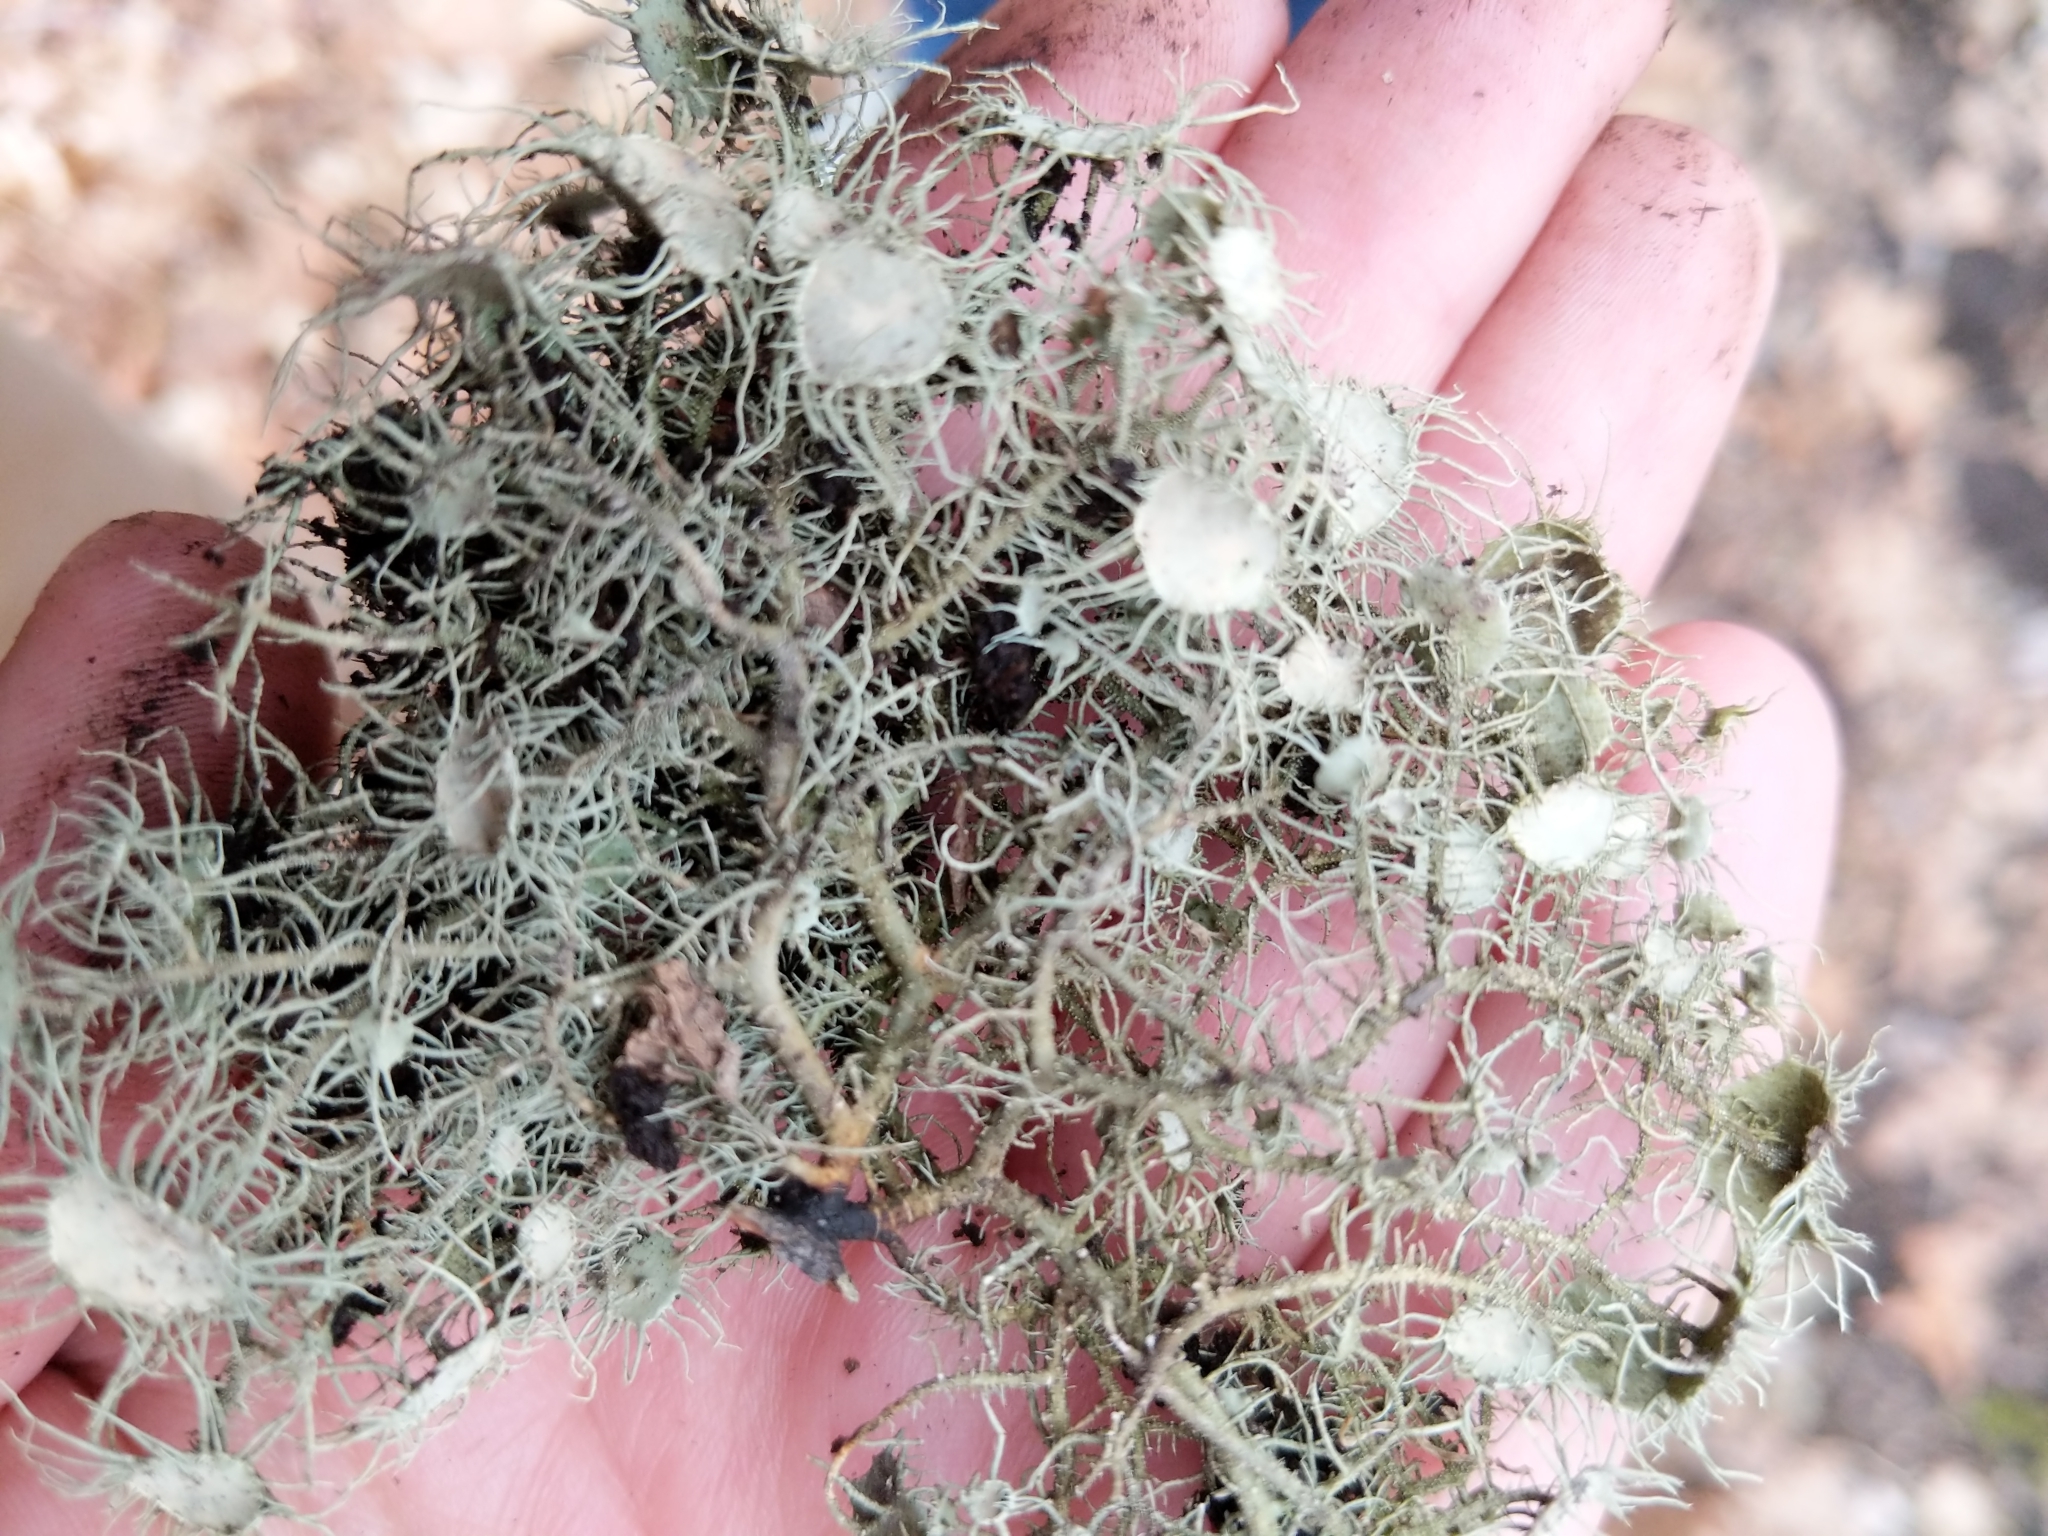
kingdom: Fungi
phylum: Ascomycota
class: Lecanoromycetes
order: Lecanorales
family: Parmeliaceae
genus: Usnea
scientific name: Usnea strigosa
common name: Bushy beard lichen
